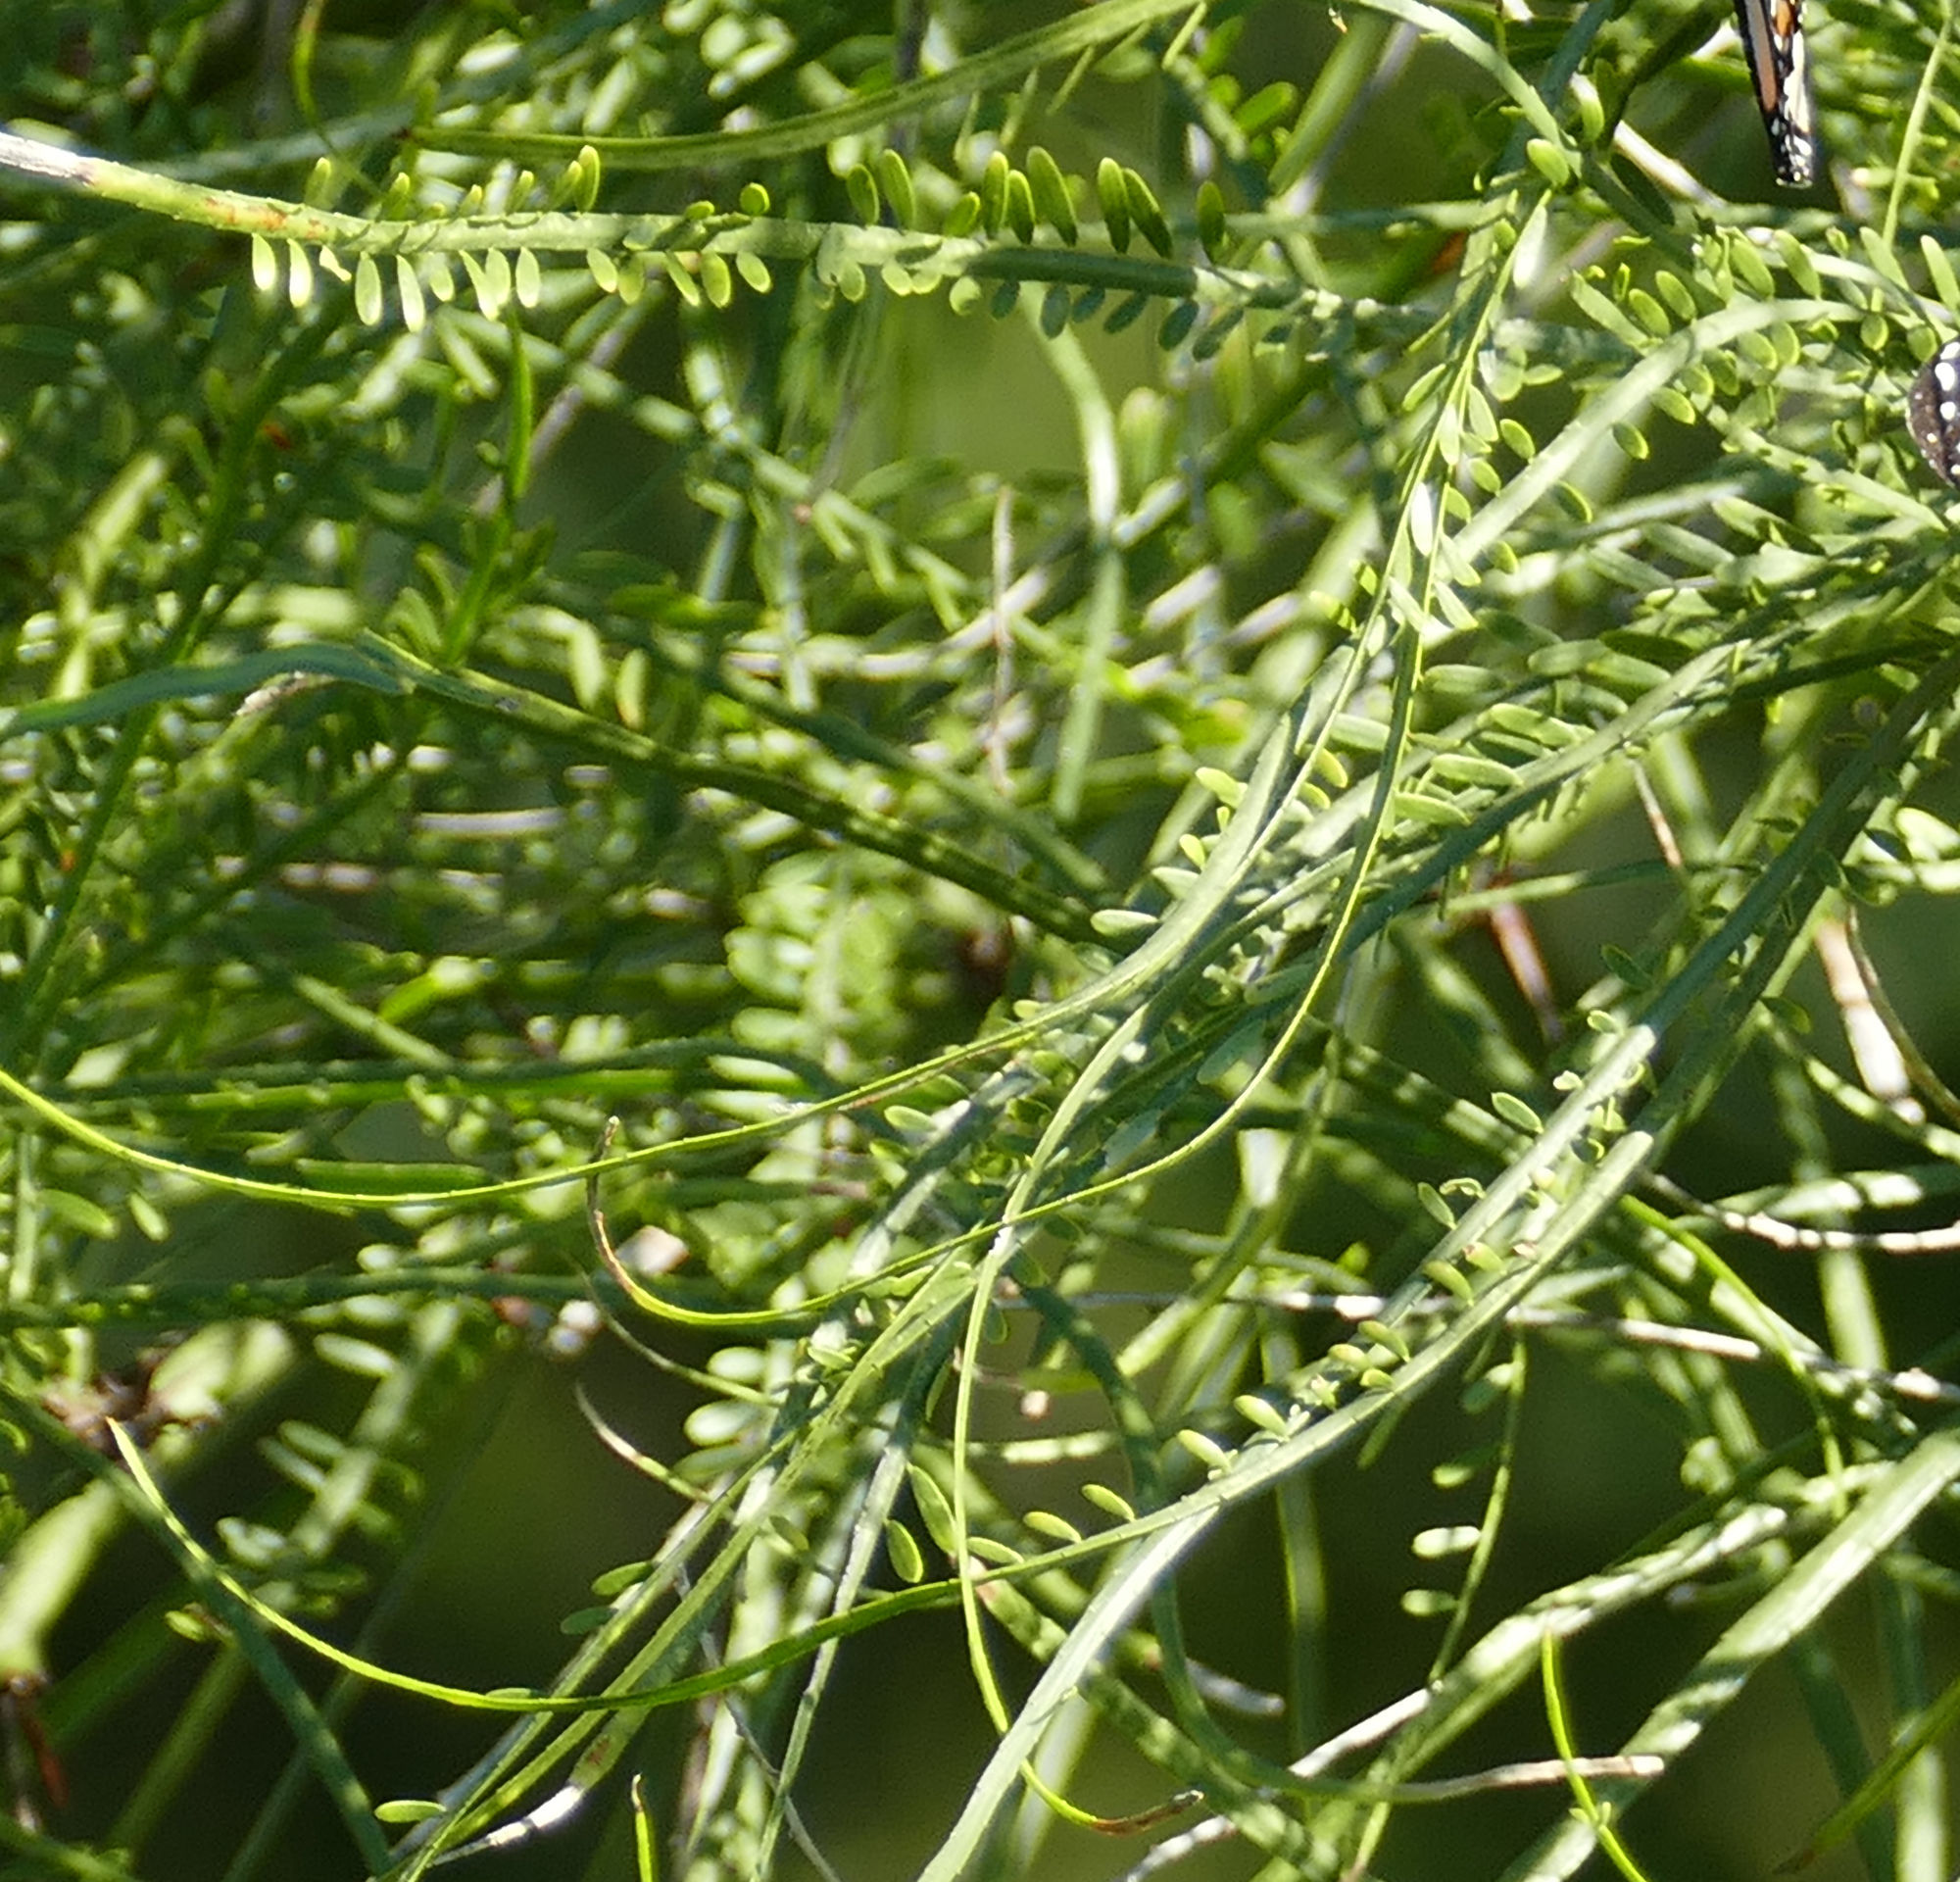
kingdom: Plantae
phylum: Tracheophyta
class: Magnoliopsida
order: Fabales
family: Fabaceae
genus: Parkinsonia
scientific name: Parkinsonia aculeata
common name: Jerusalem thorn
